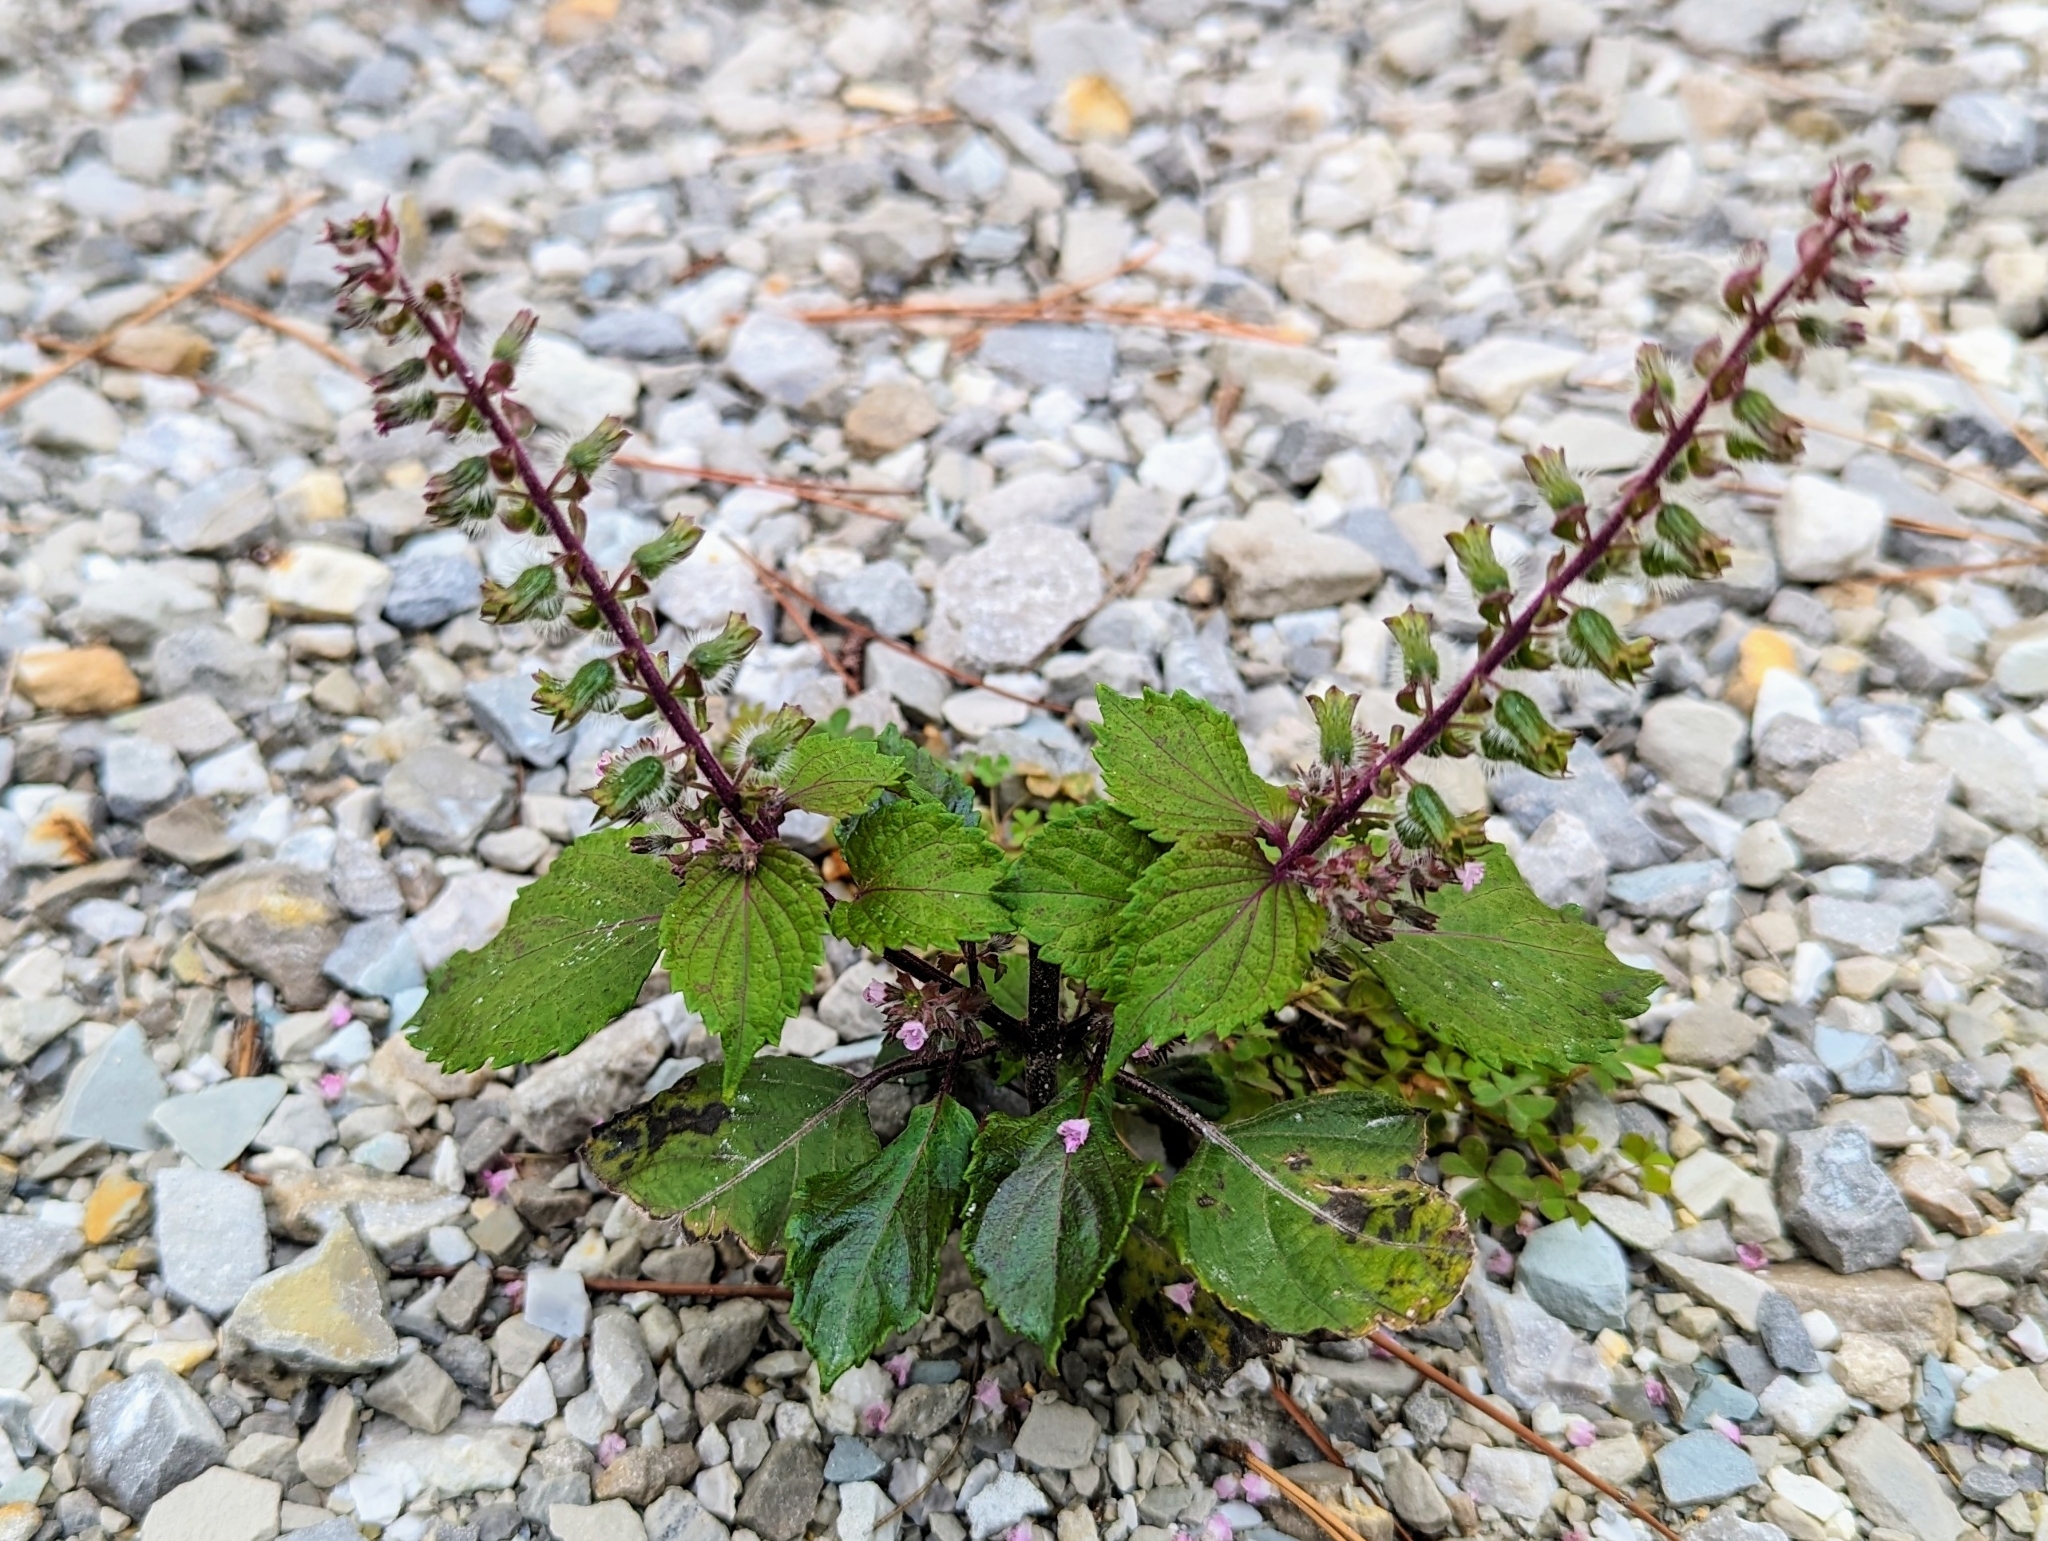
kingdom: Plantae
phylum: Tracheophyta
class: Magnoliopsida
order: Lamiales
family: Lamiaceae
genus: Perilla
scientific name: Perilla frutescens
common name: Perilla
